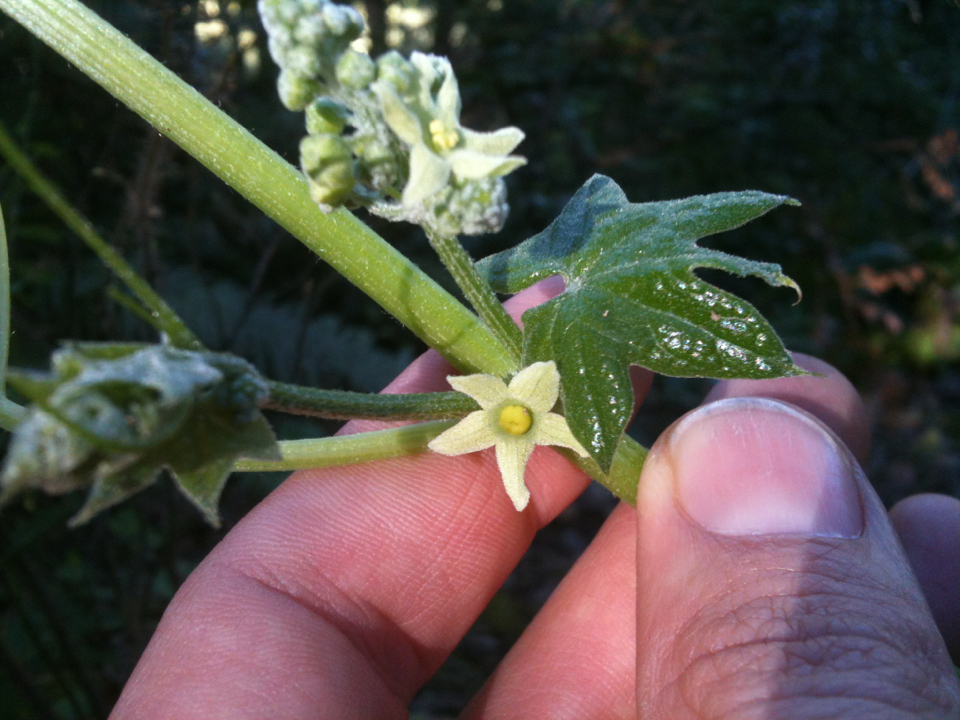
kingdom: Plantae
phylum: Tracheophyta
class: Magnoliopsida
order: Cucurbitales
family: Cucurbitaceae
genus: Marah
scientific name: Marah fabacea
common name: California manroot
